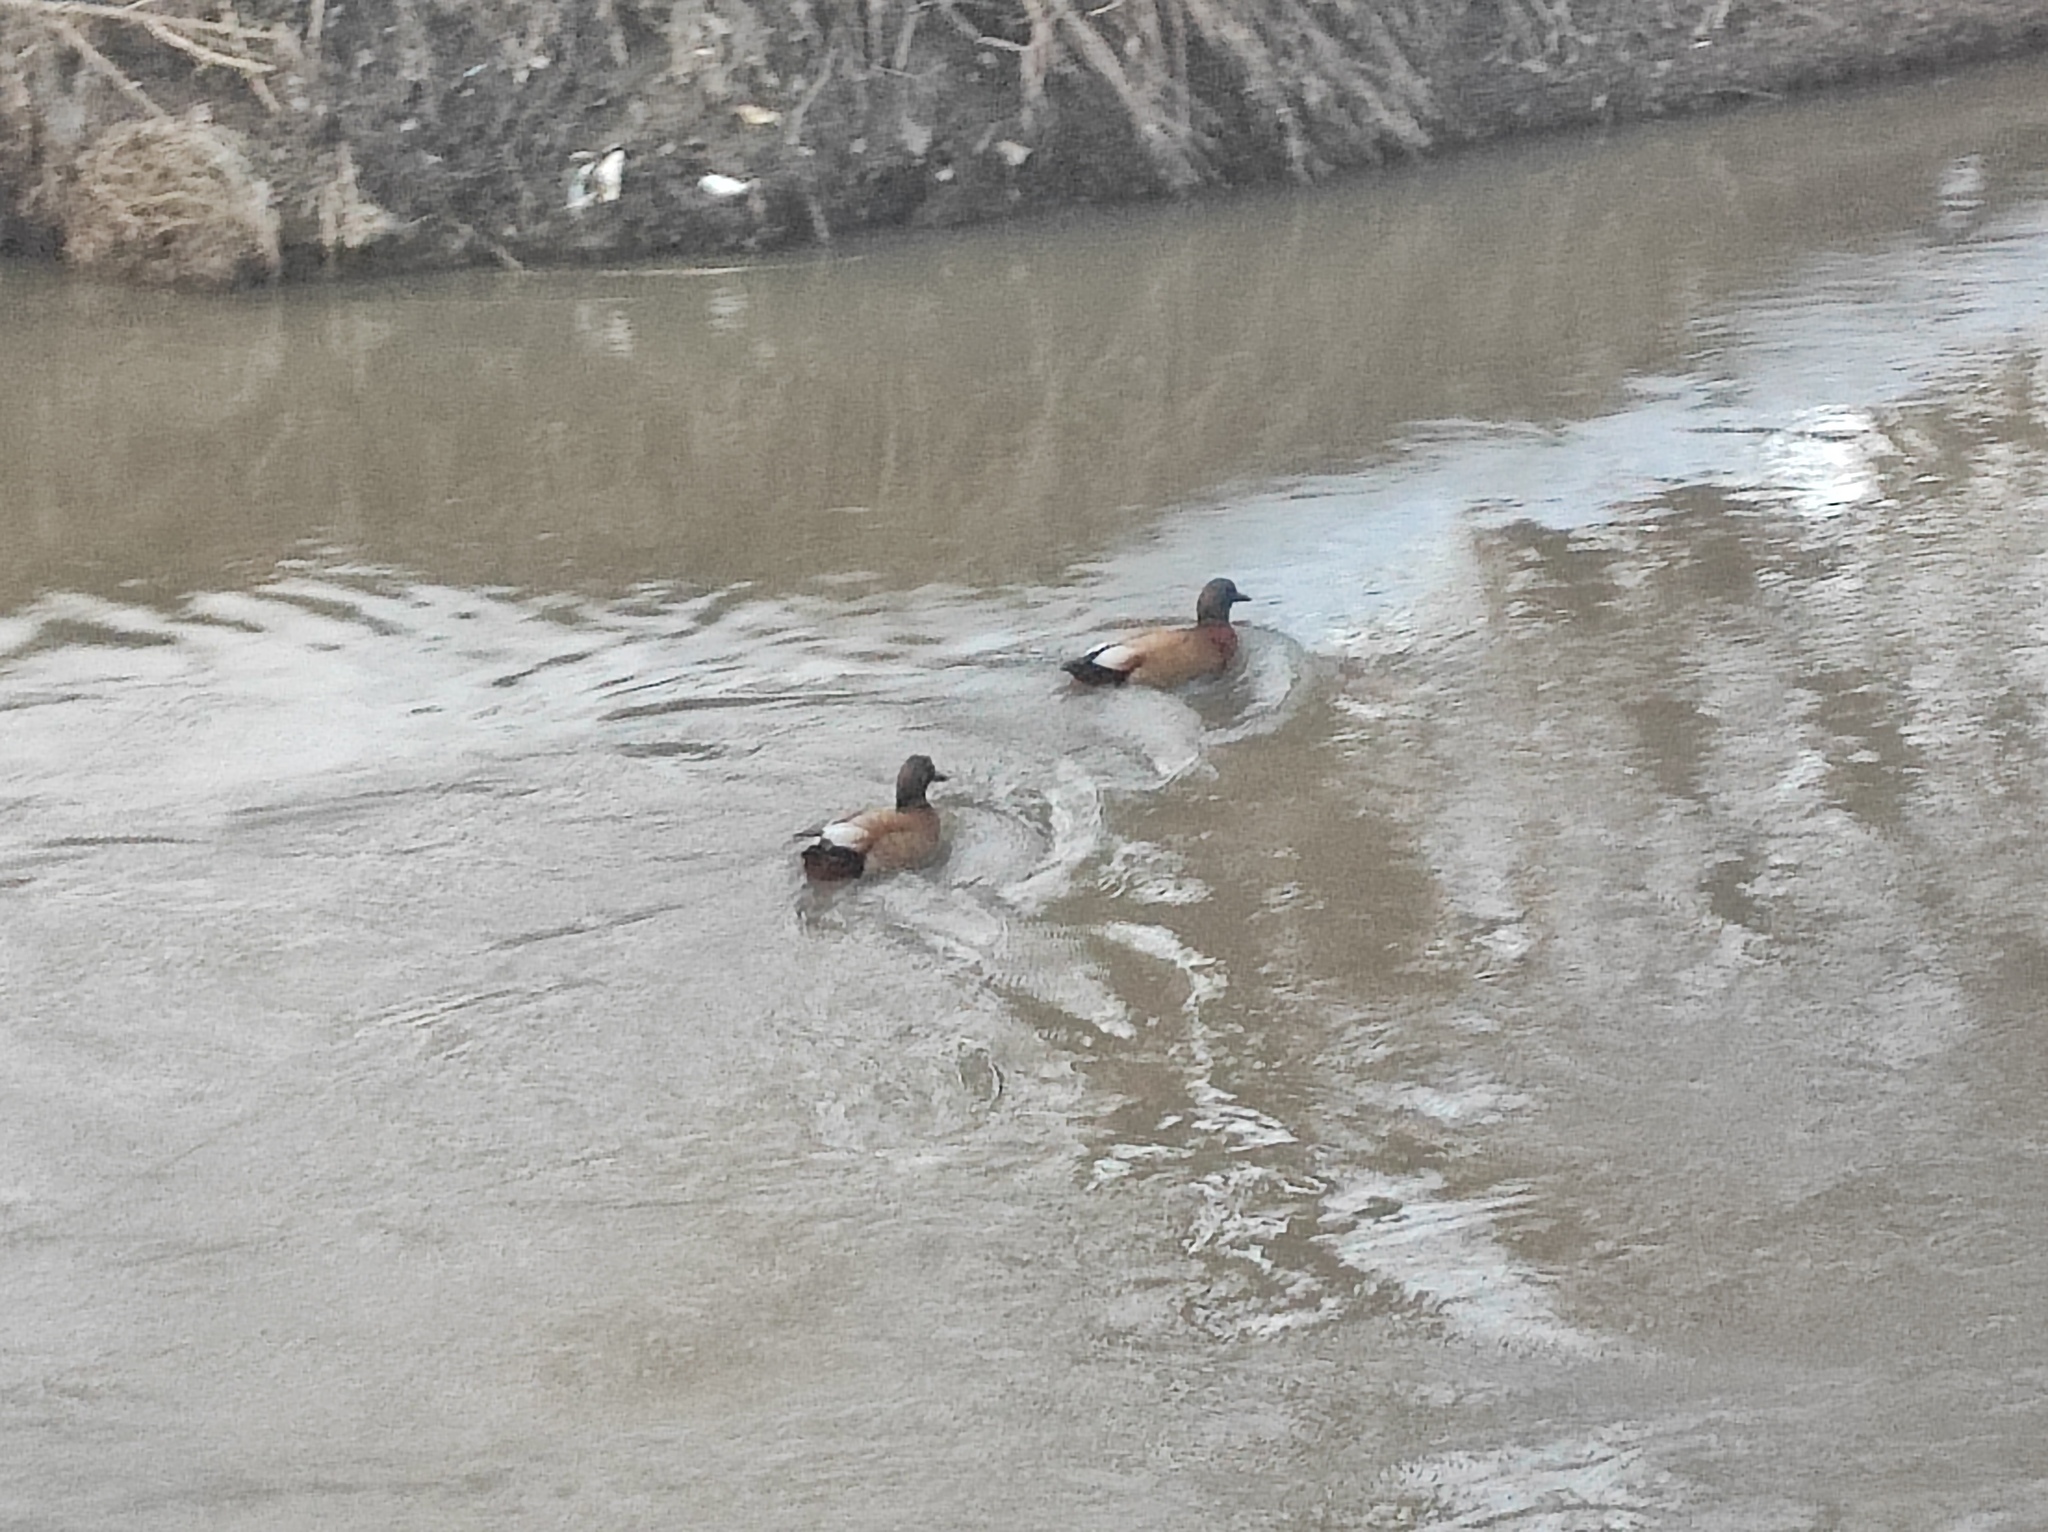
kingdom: Animalia
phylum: Chordata
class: Aves
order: Anseriformes
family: Anatidae
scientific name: Anatidae
